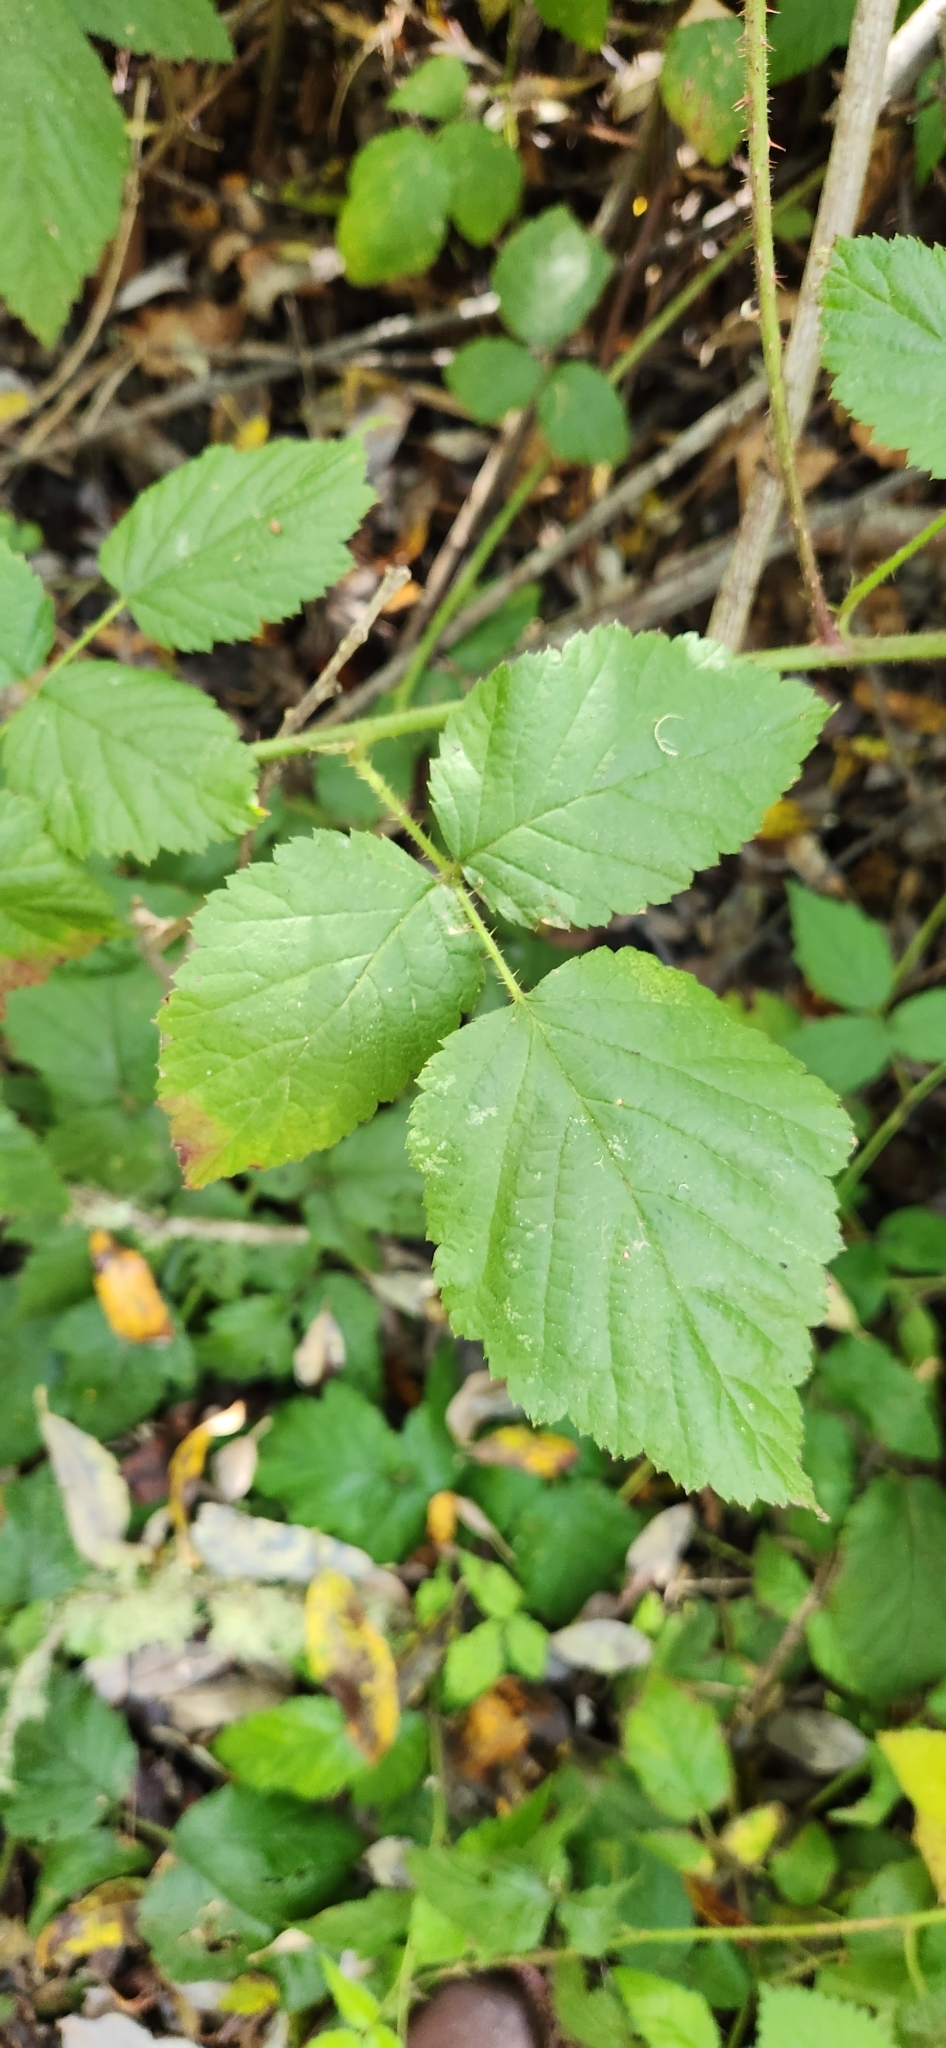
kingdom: Plantae
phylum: Tracheophyta
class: Magnoliopsida
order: Rosales
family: Rosaceae
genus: Rubus
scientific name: Rubus ursinus
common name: Pacific blackberry
